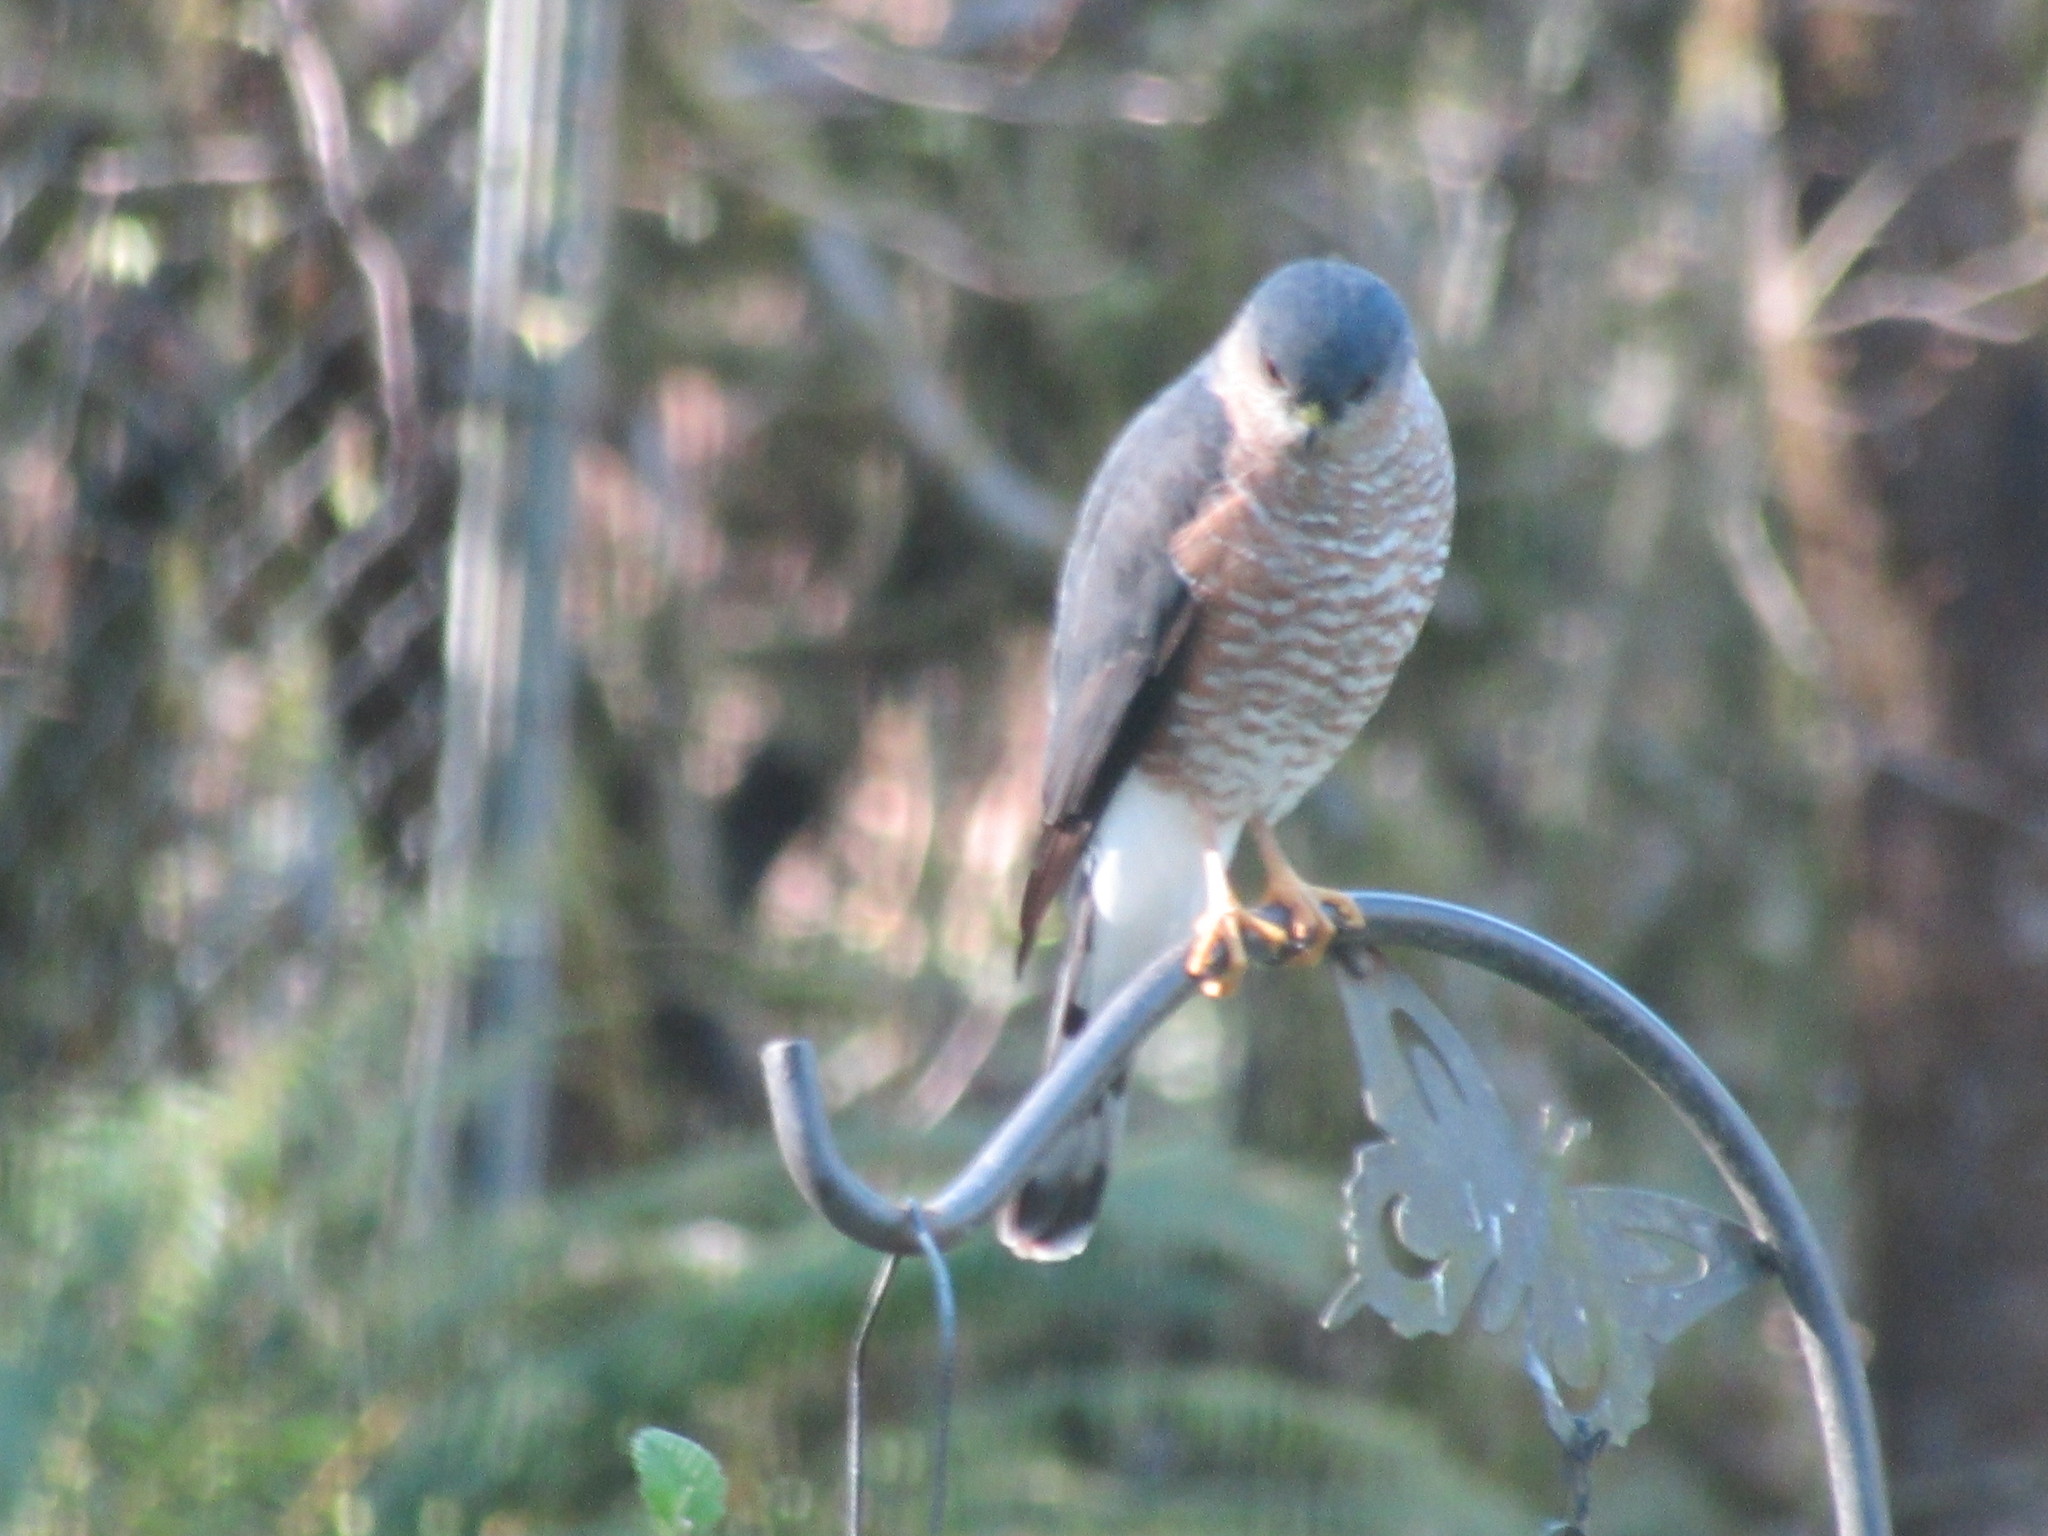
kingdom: Animalia
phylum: Chordata
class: Aves
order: Accipitriformes
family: Accipitridae
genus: Accipiter
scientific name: Accipiter striatus
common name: Sharp-shinned hawk
